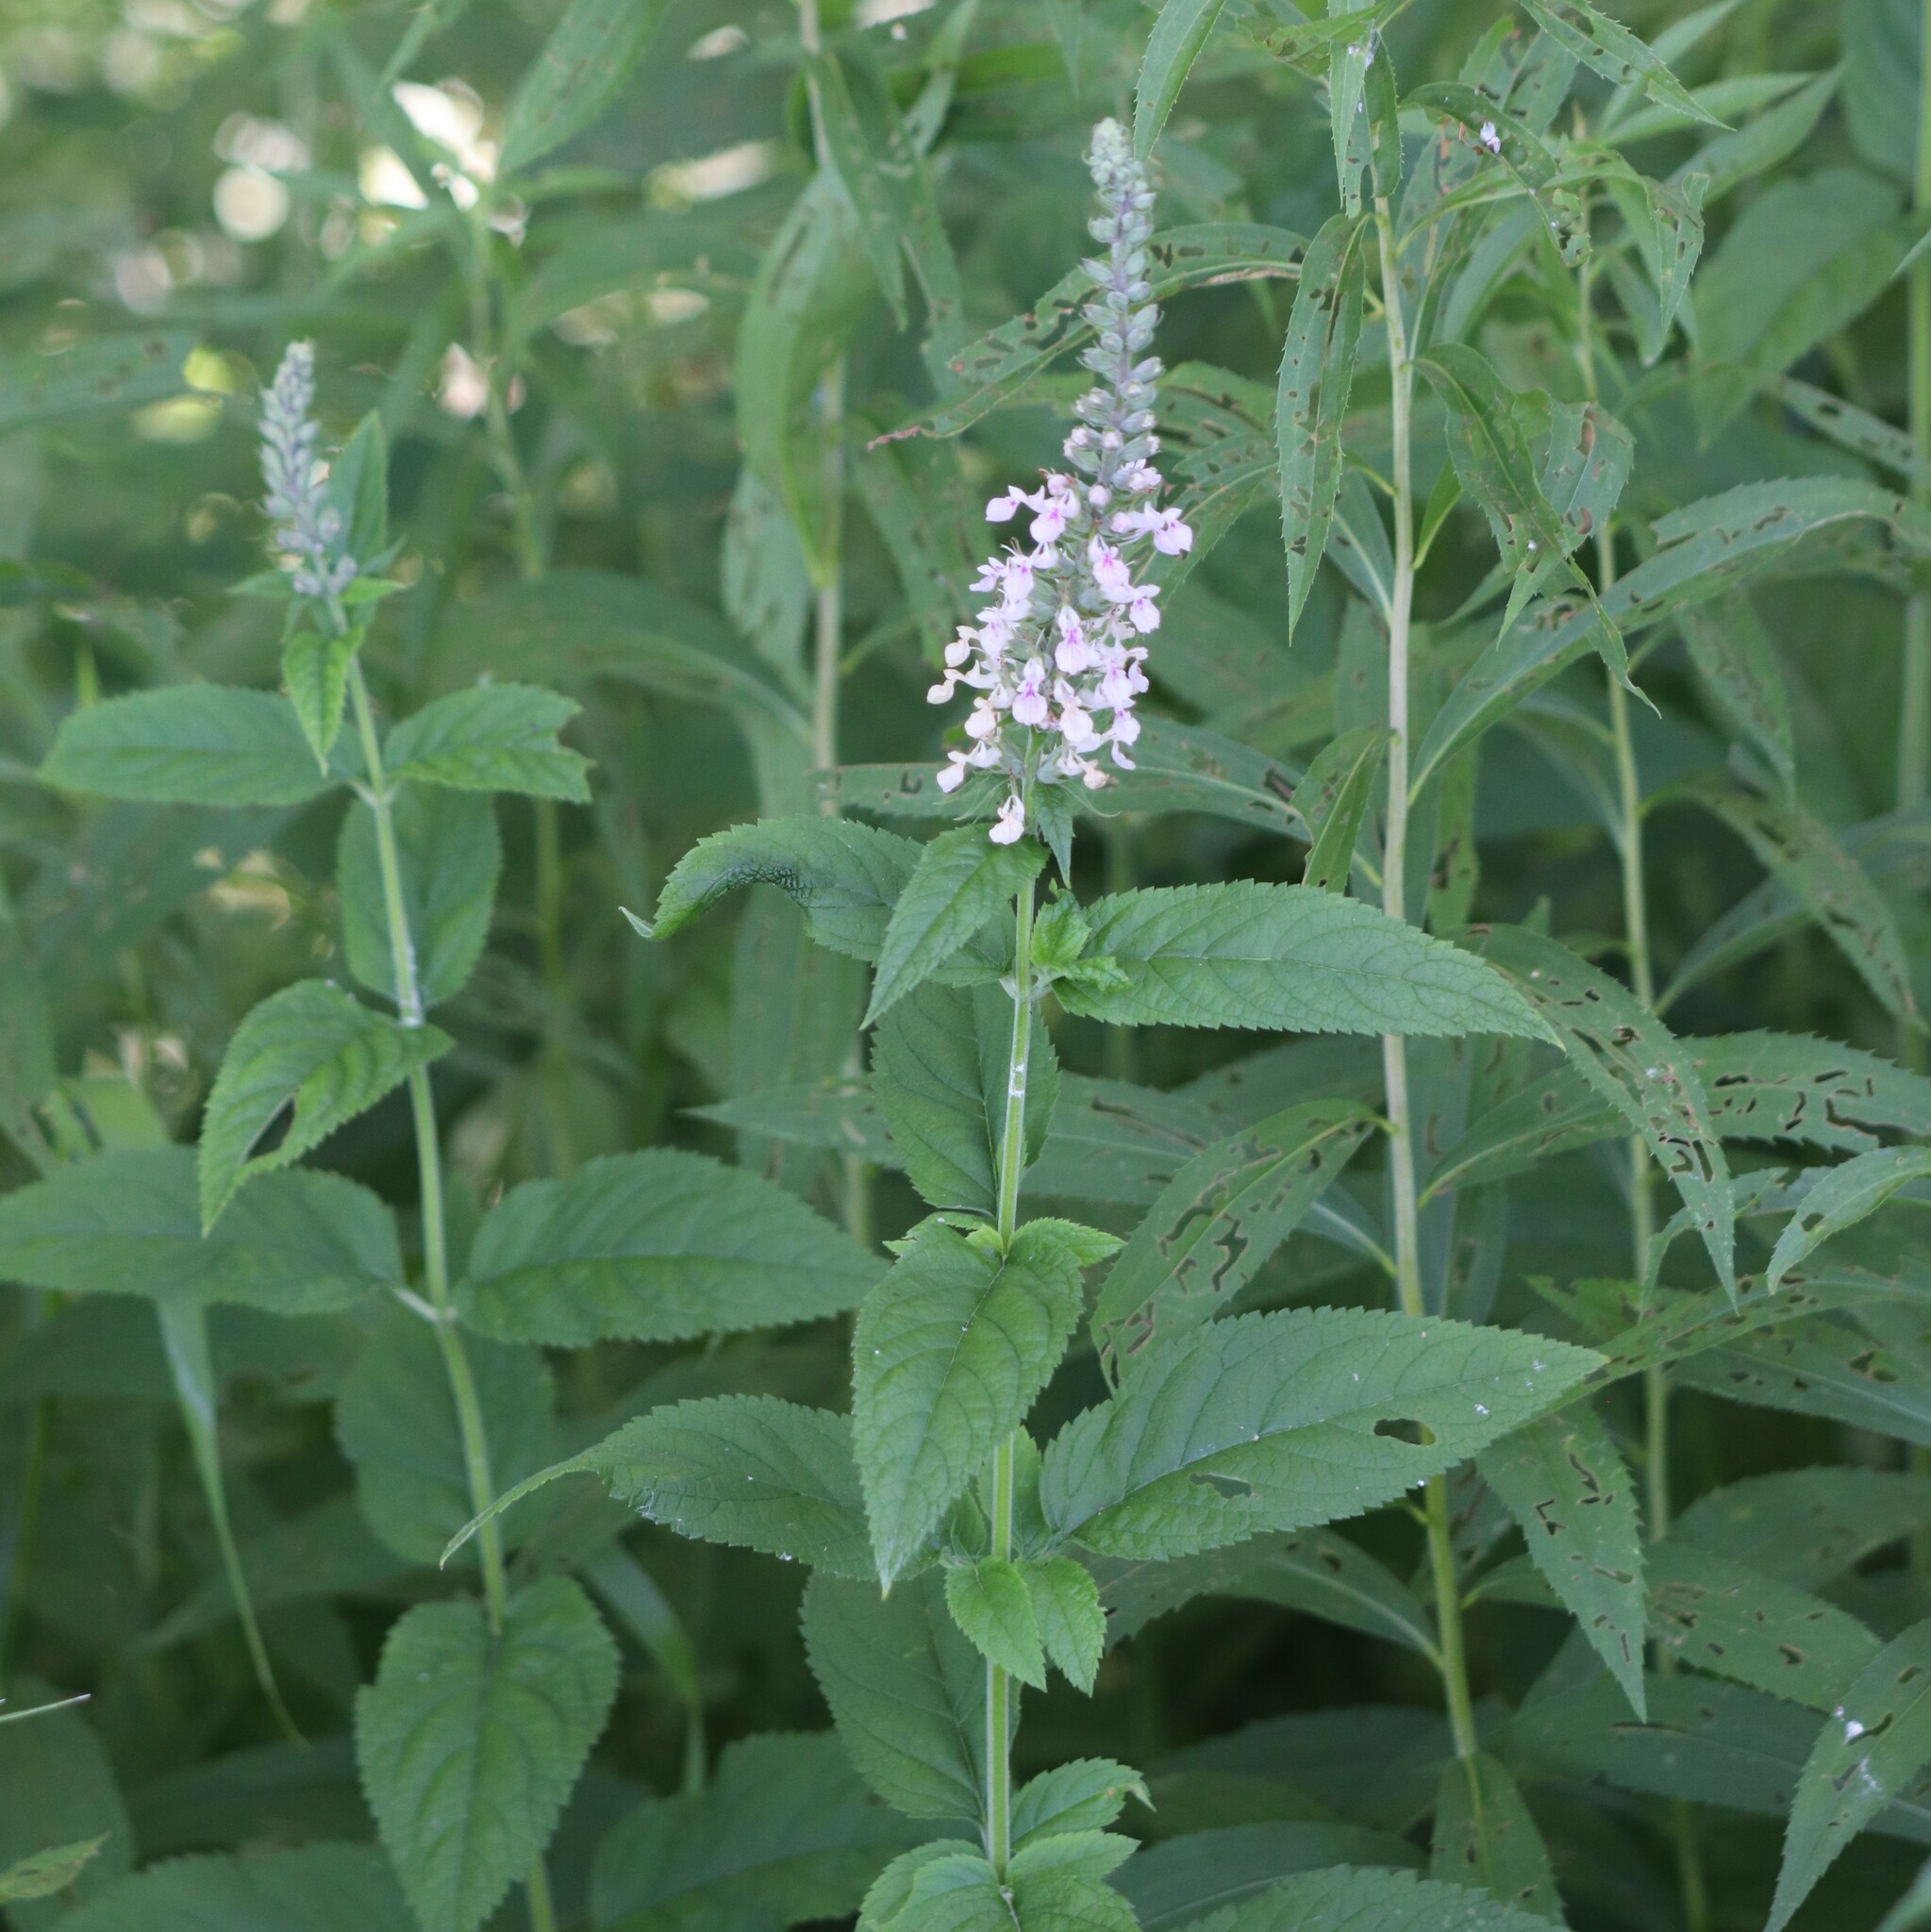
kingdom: Plantae
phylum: Tracheophyta
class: Magnoliopsida
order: Lamiales
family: Lamiaceae
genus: Teucrium
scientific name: Teucrium canadense
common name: American germander
